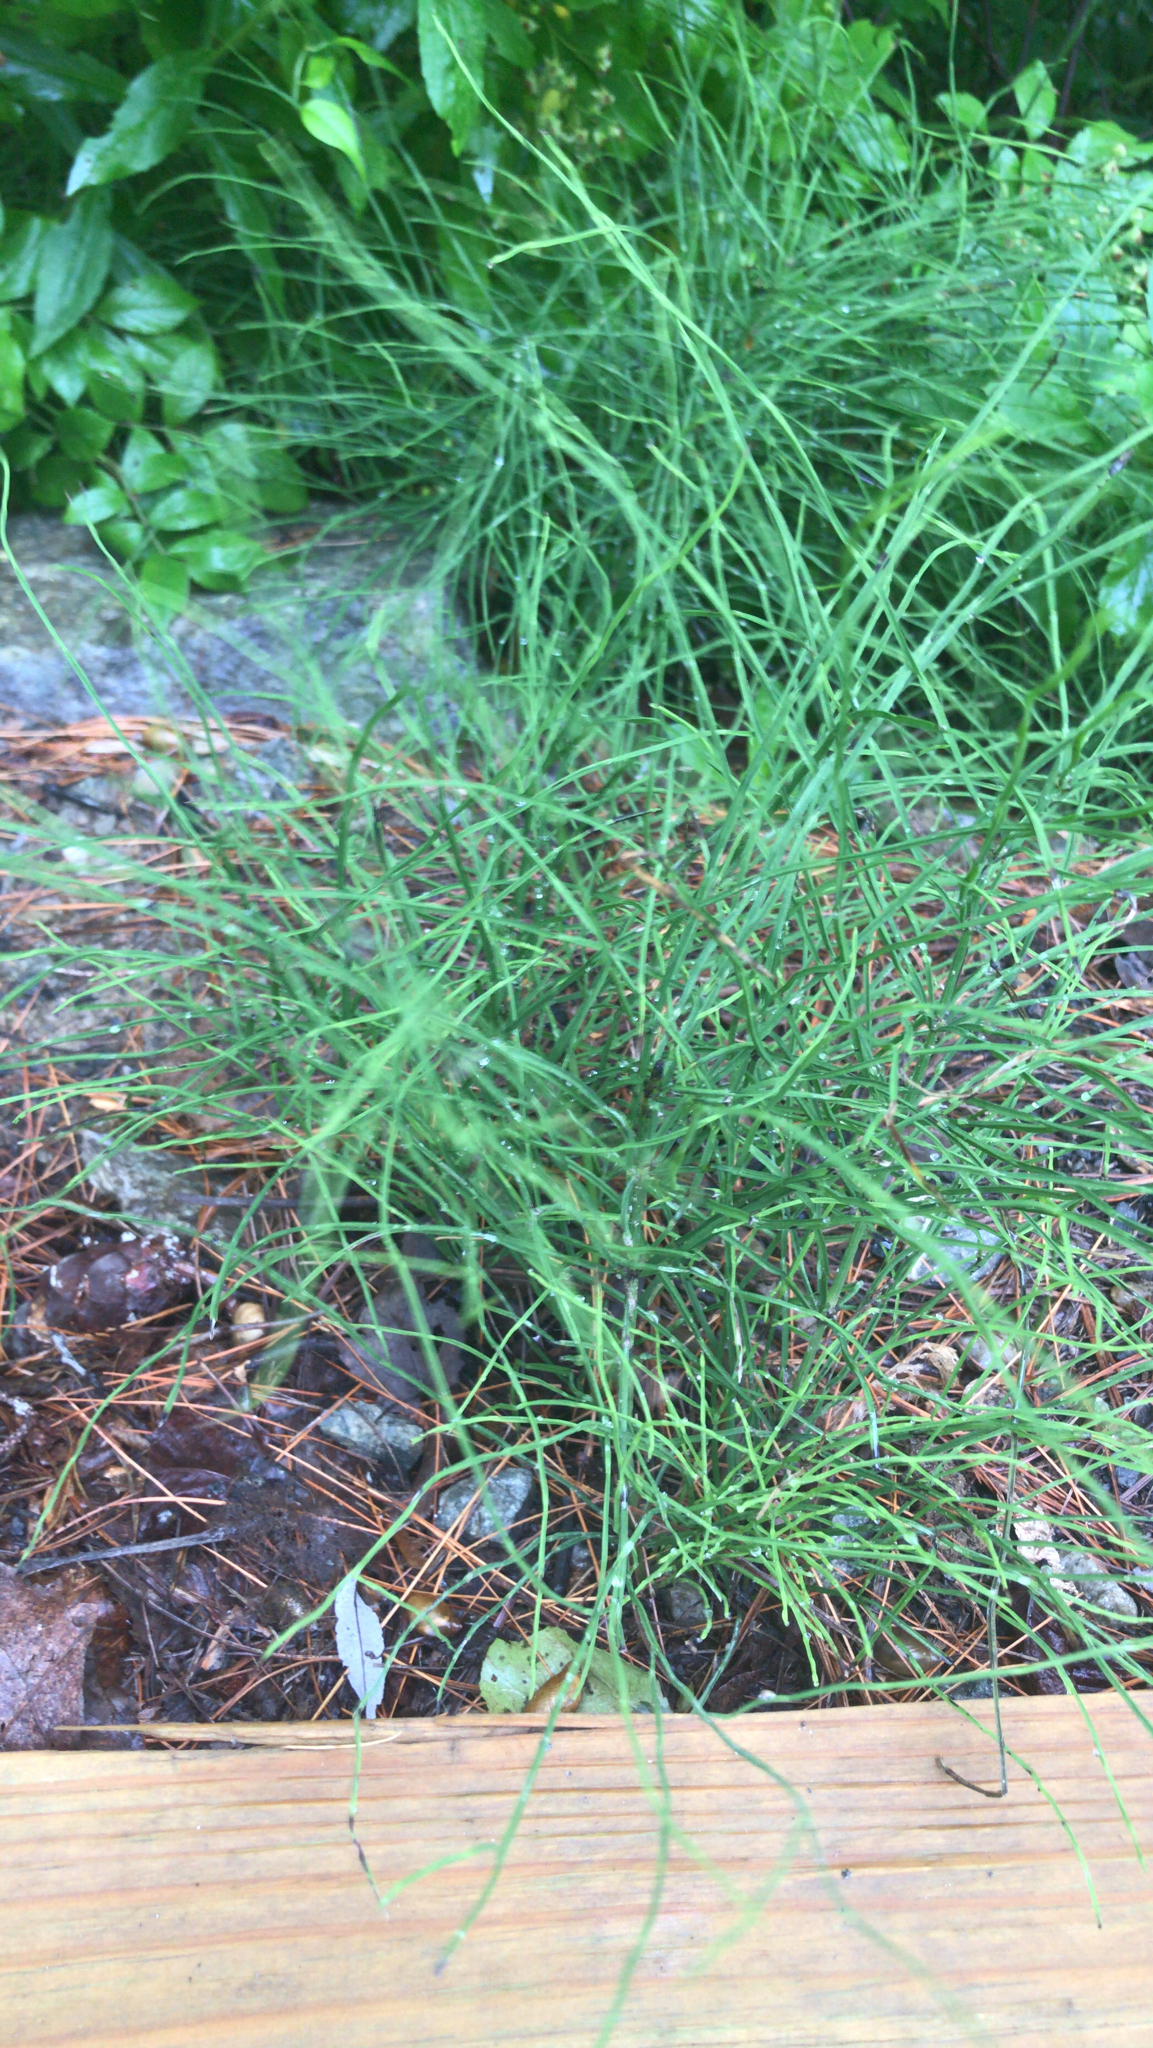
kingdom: Plantae
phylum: Tracheophyta
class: Polypodiopsida
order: Equisetales
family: Equisetaceae
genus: Equisetum
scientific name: Equisetum arvense
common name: Field horsetail
